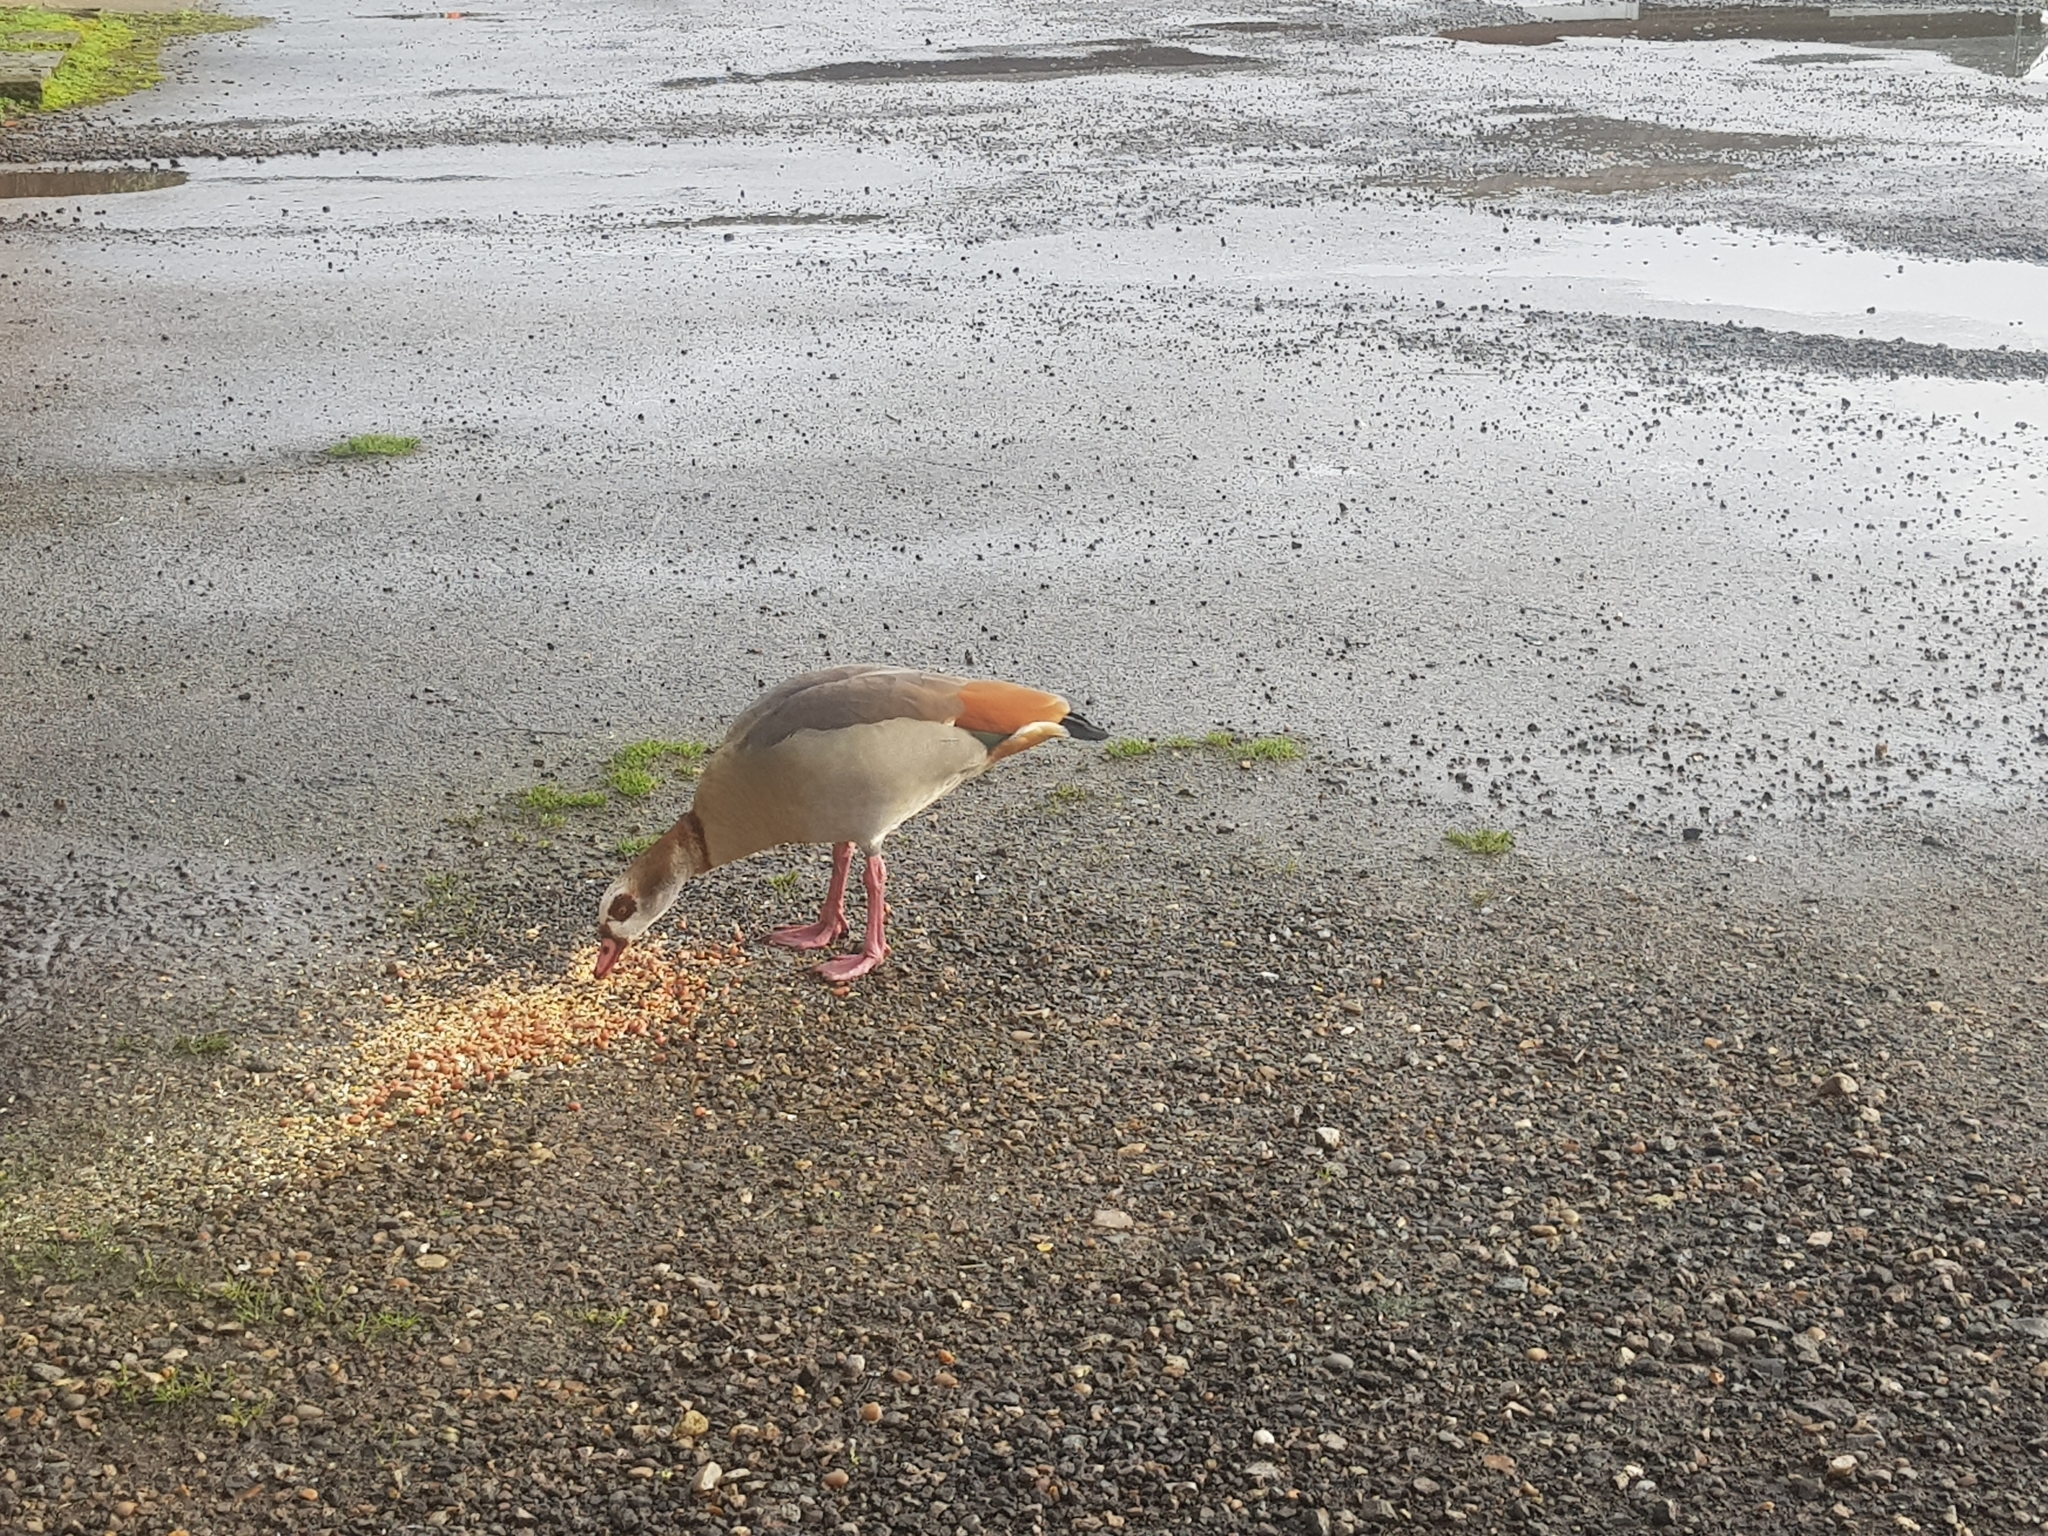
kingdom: Animalia
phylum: Chordata
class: Aves
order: Anseriformes
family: Anatidae
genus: Alopochen
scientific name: Alopochen aegyptiaca
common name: Egyptian goose
